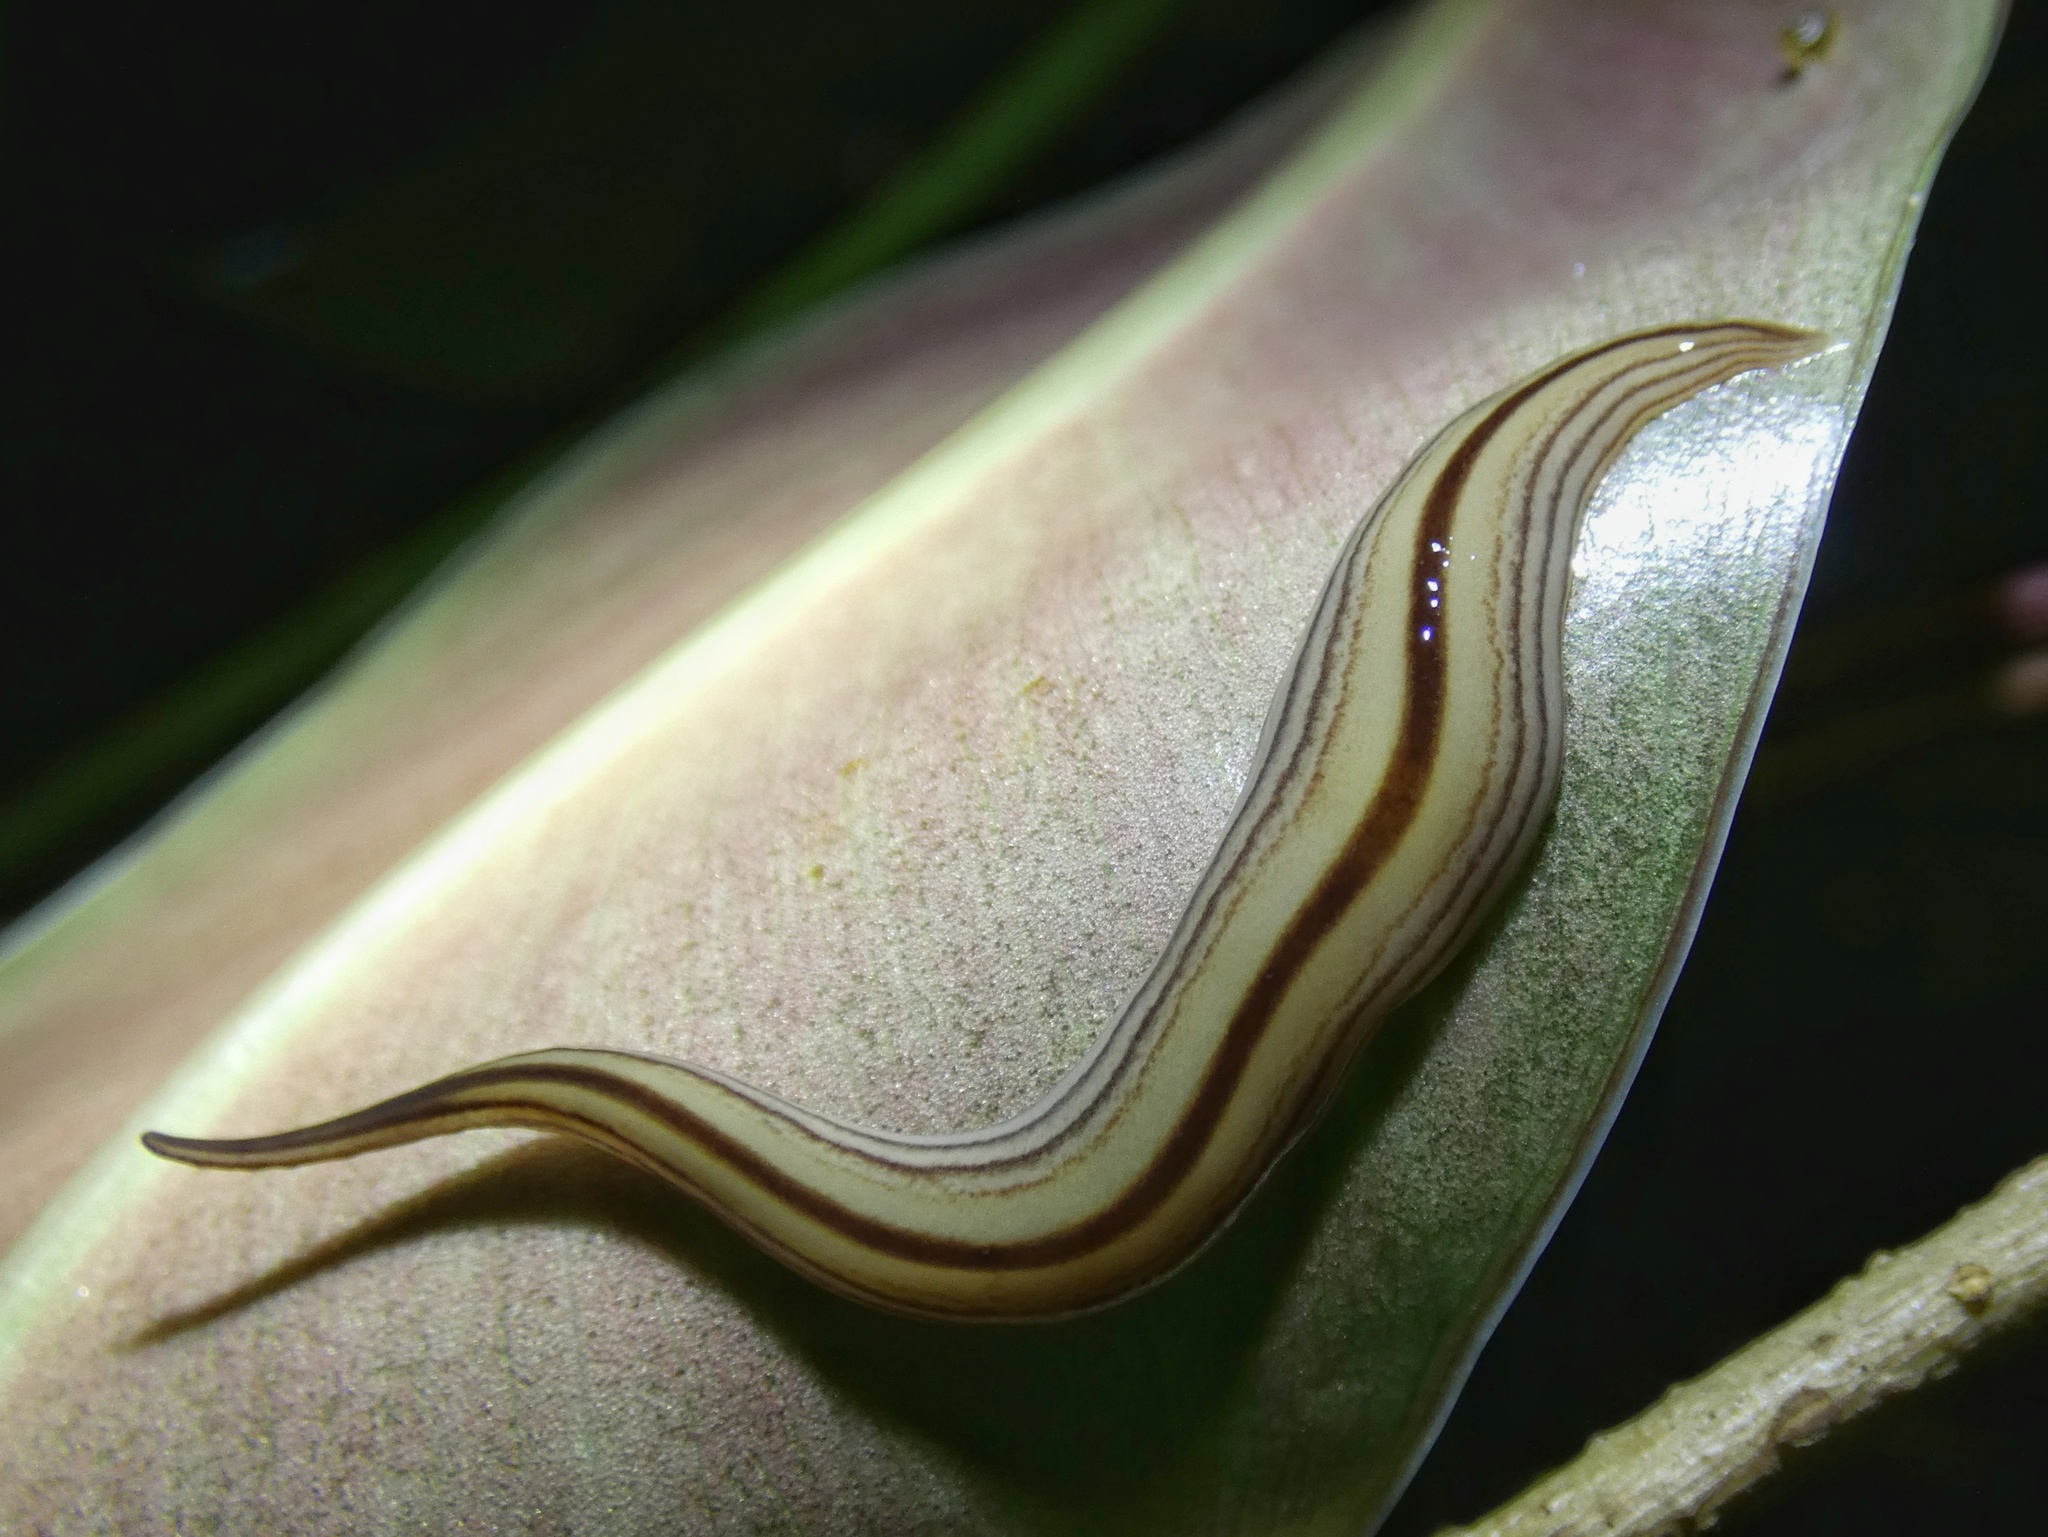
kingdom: Animalia
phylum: Platyhelminthes
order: Tricladida
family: Geoplanidae
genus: Australopacifica
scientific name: Australopacifica regina
